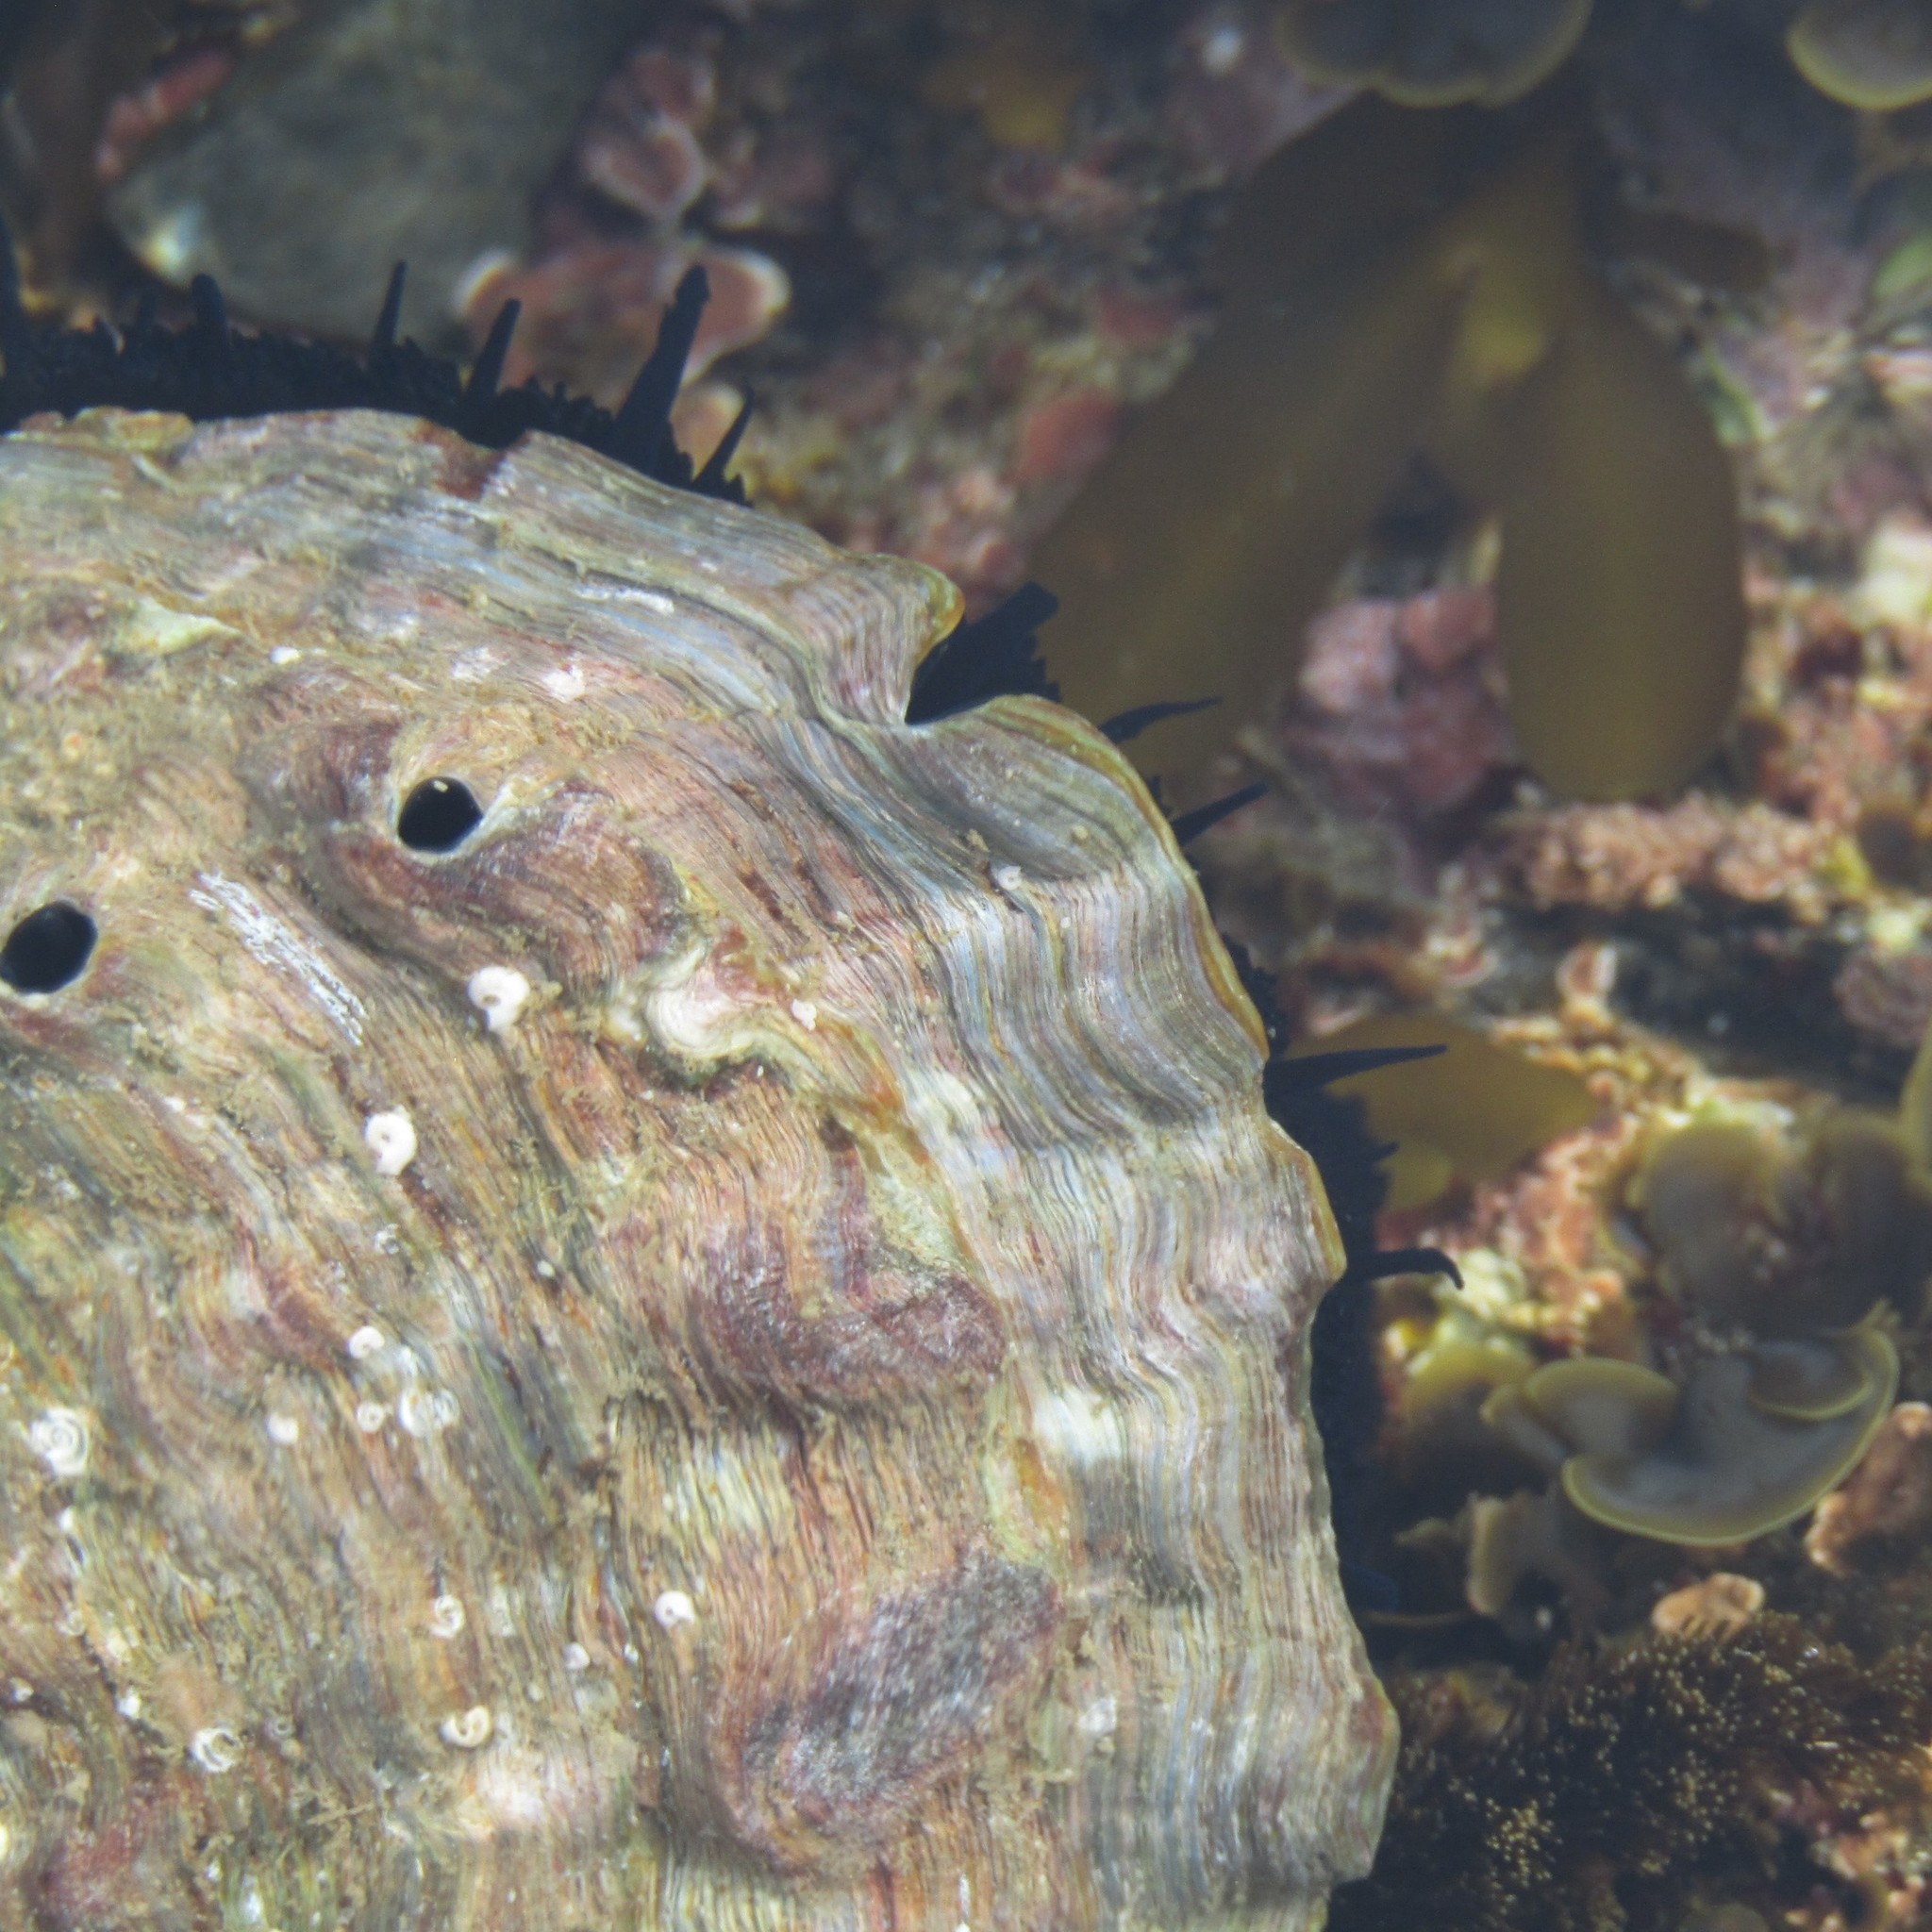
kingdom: Animalia
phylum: Mollusca
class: Gastropoda
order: Lepetellida
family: Haliotidae
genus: Haliotis
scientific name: Haliotis iris
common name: Abalone
